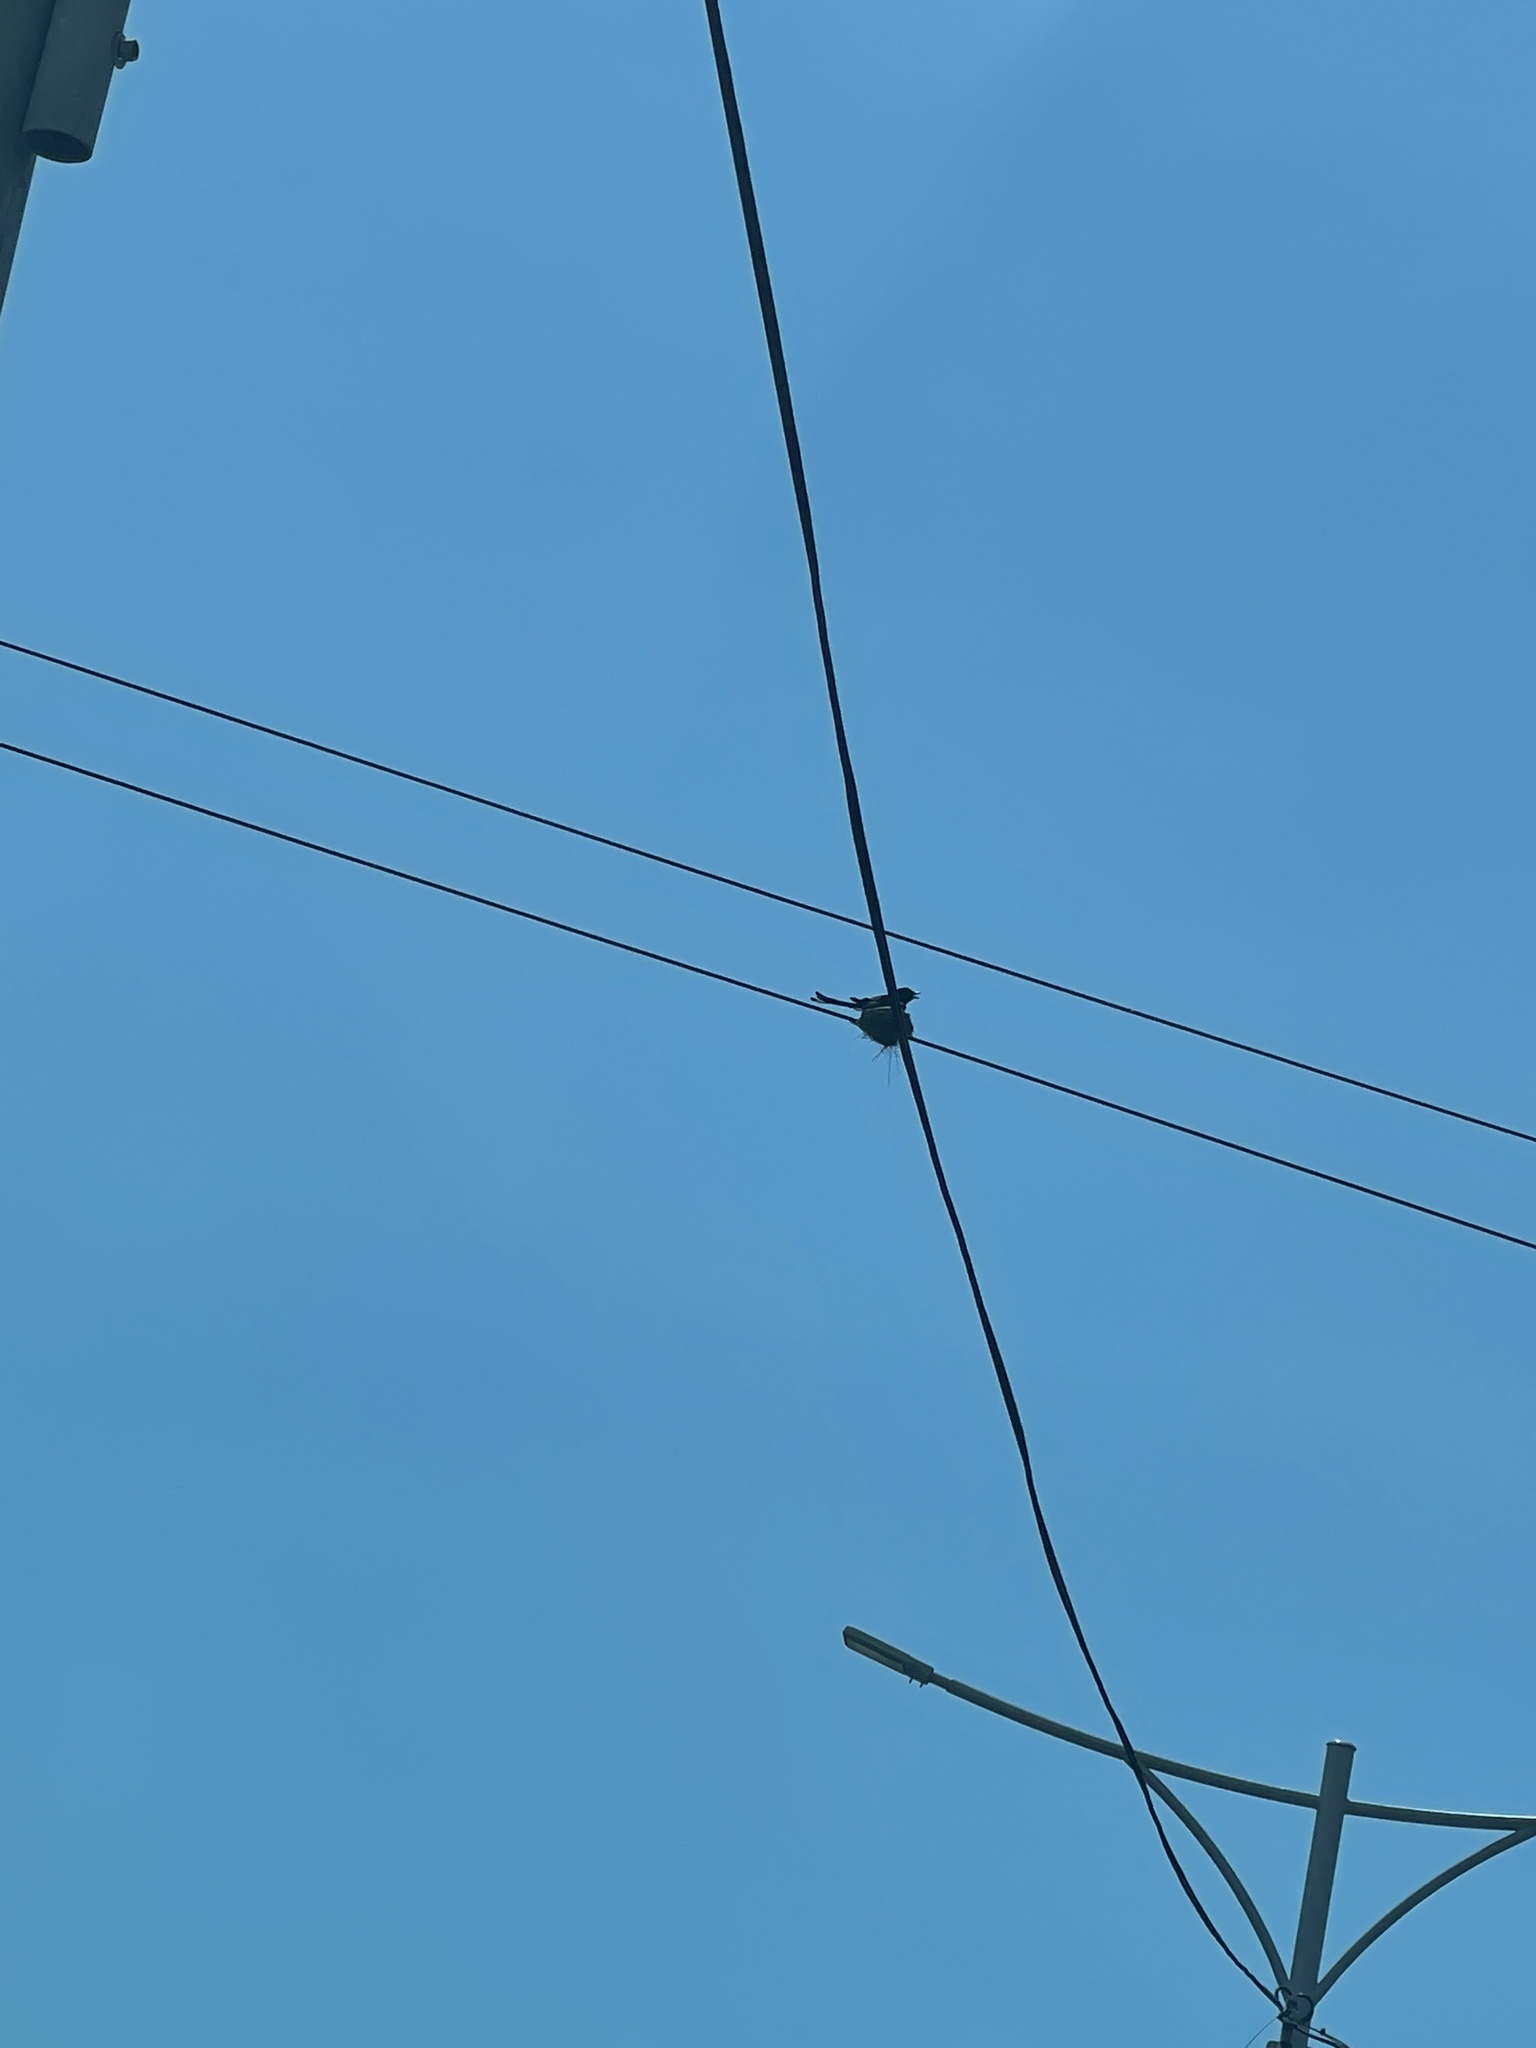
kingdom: Animalia
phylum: Chordata
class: Aves
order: Passeriformes
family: Dicruridae
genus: Dicrurus
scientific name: Dicrurus macrocercus
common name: Black drongo
